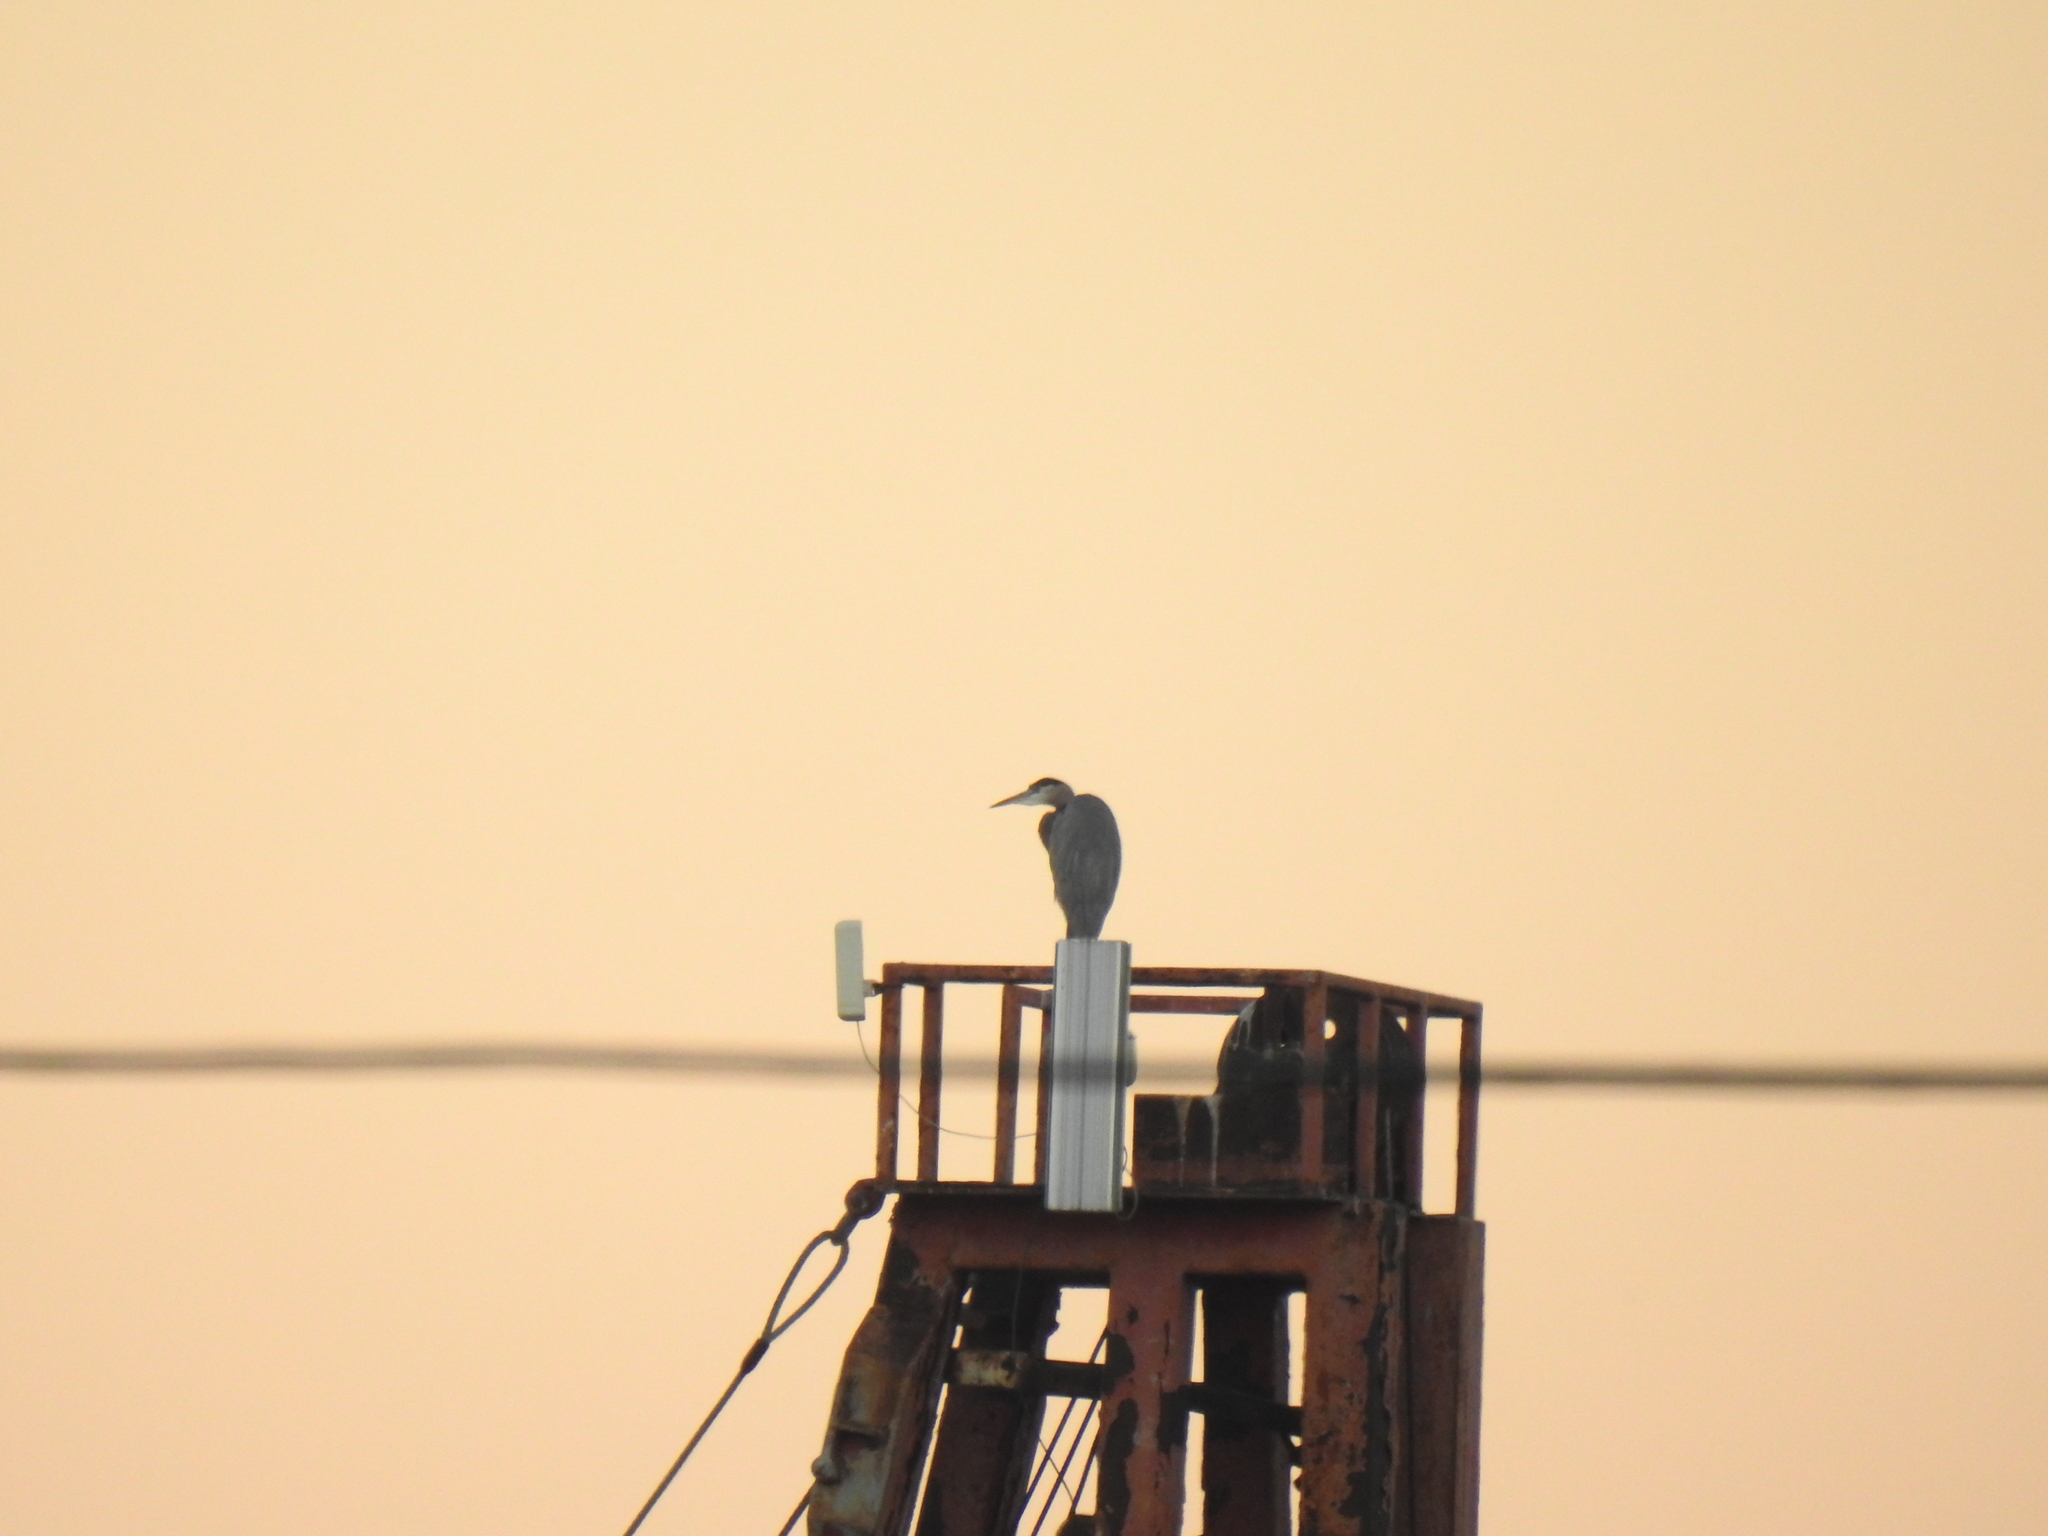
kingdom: Animalia
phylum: Chordata
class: Aves
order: Pelecaniformes
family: Ardeidae
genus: Ardea
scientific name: Ardea herodias
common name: Great blue heron
